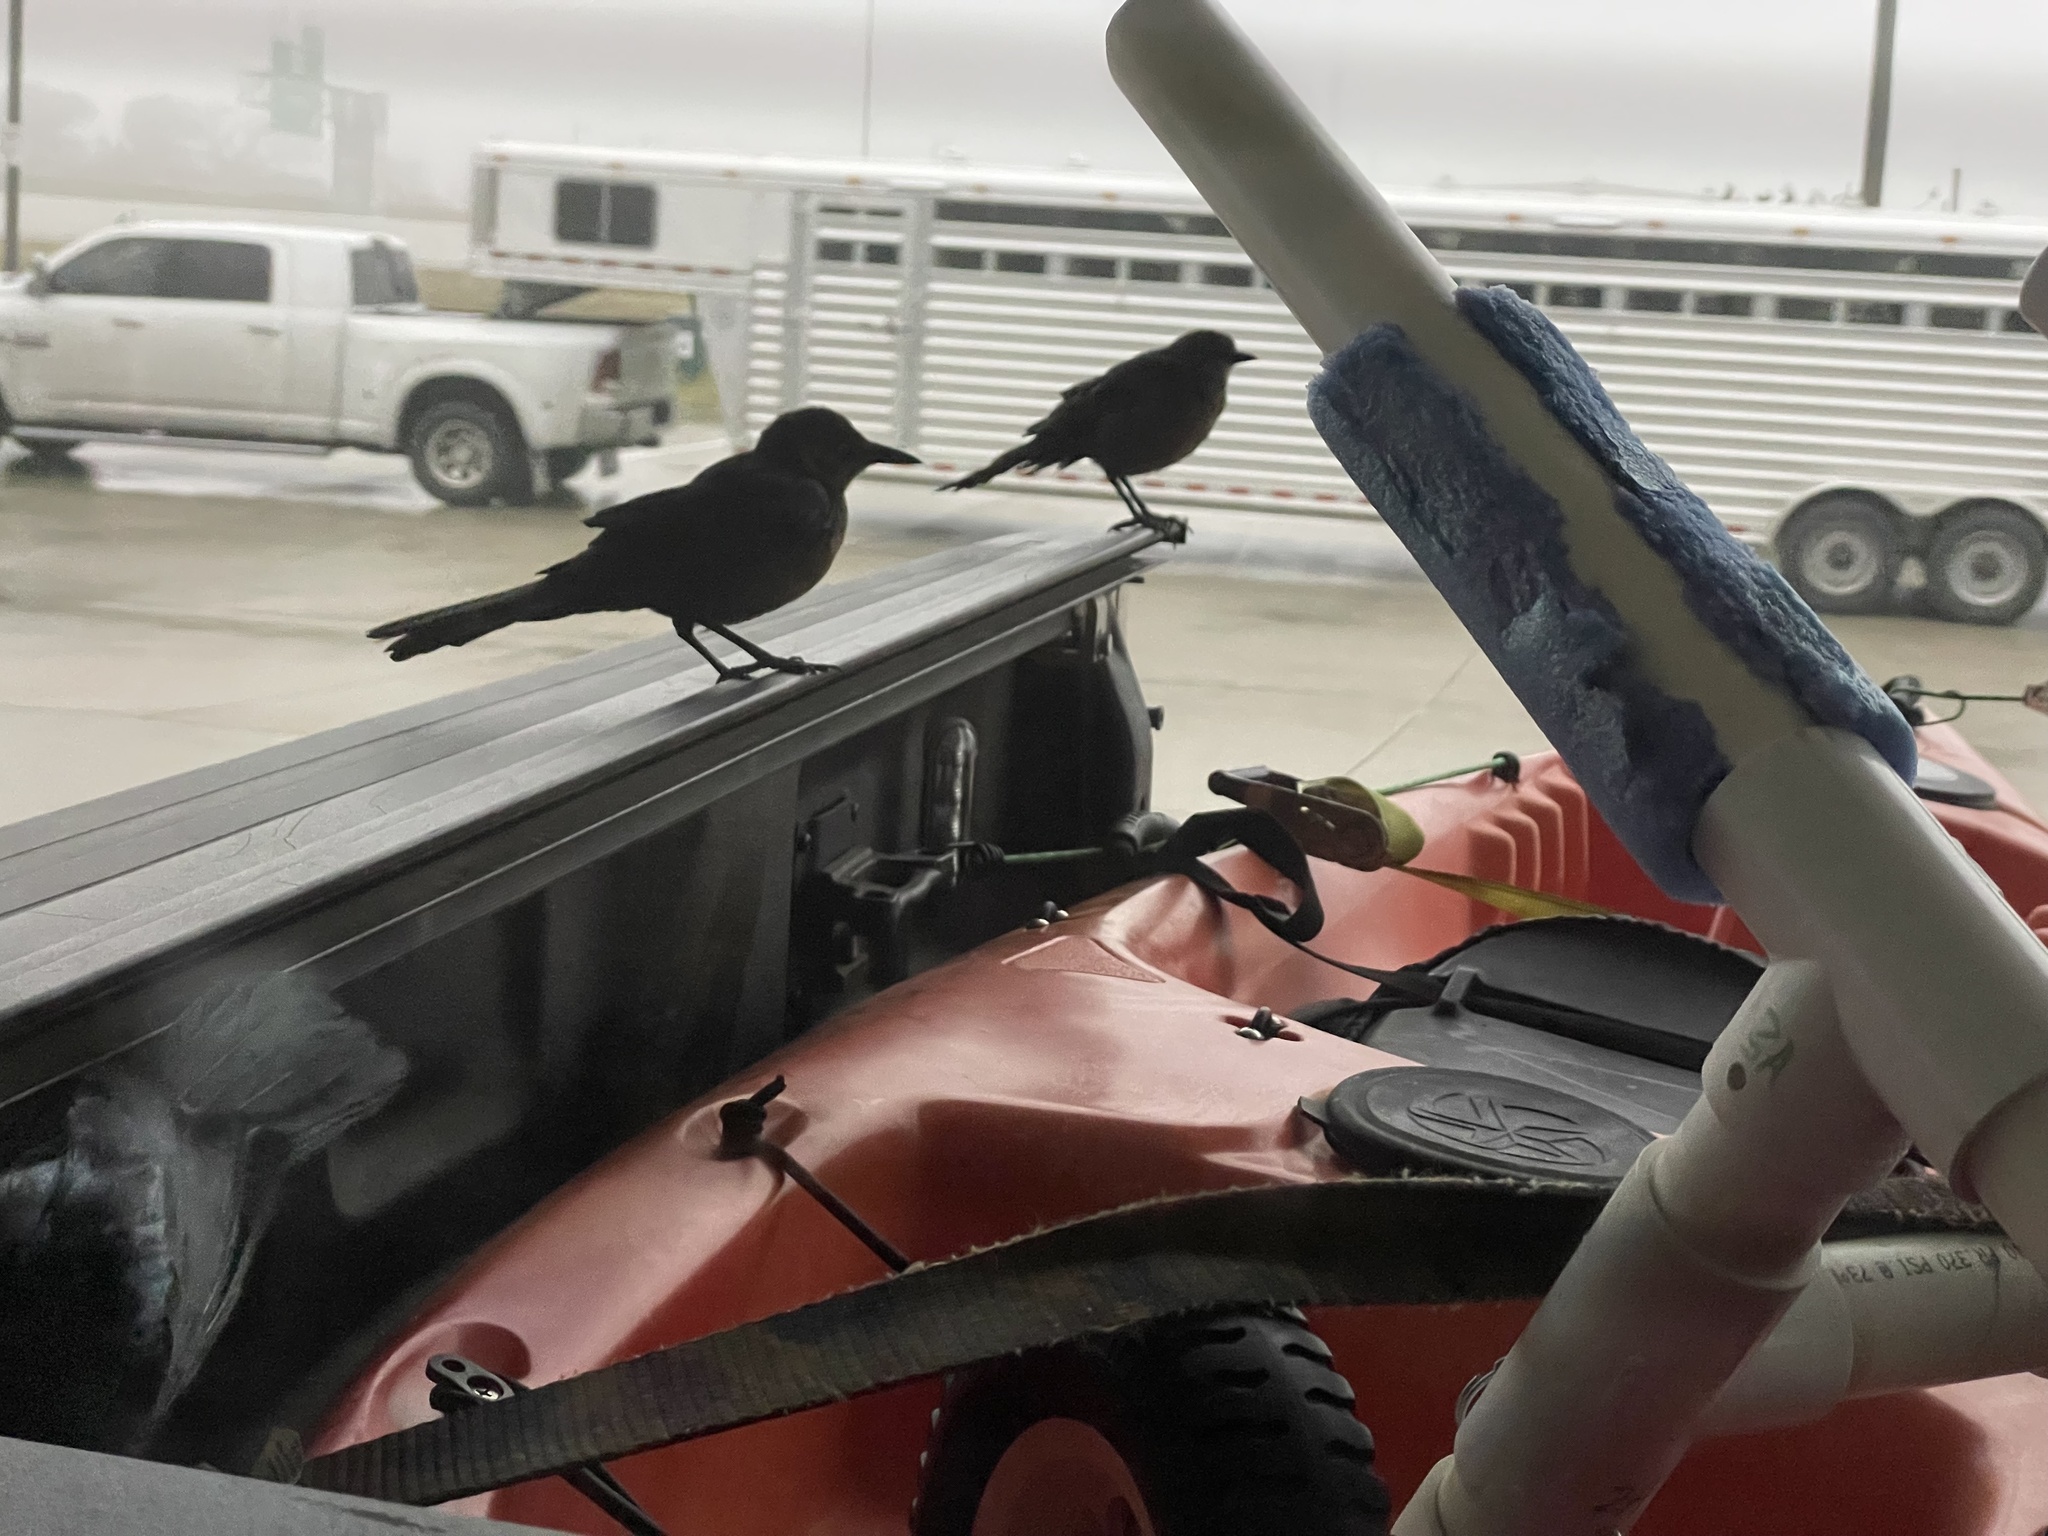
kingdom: Animalia
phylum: Chordata
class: Aves
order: Passeriformes
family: Icteridae
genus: Quiscalus
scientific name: Quiscalus mexicanus
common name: Great-tailed grackle
